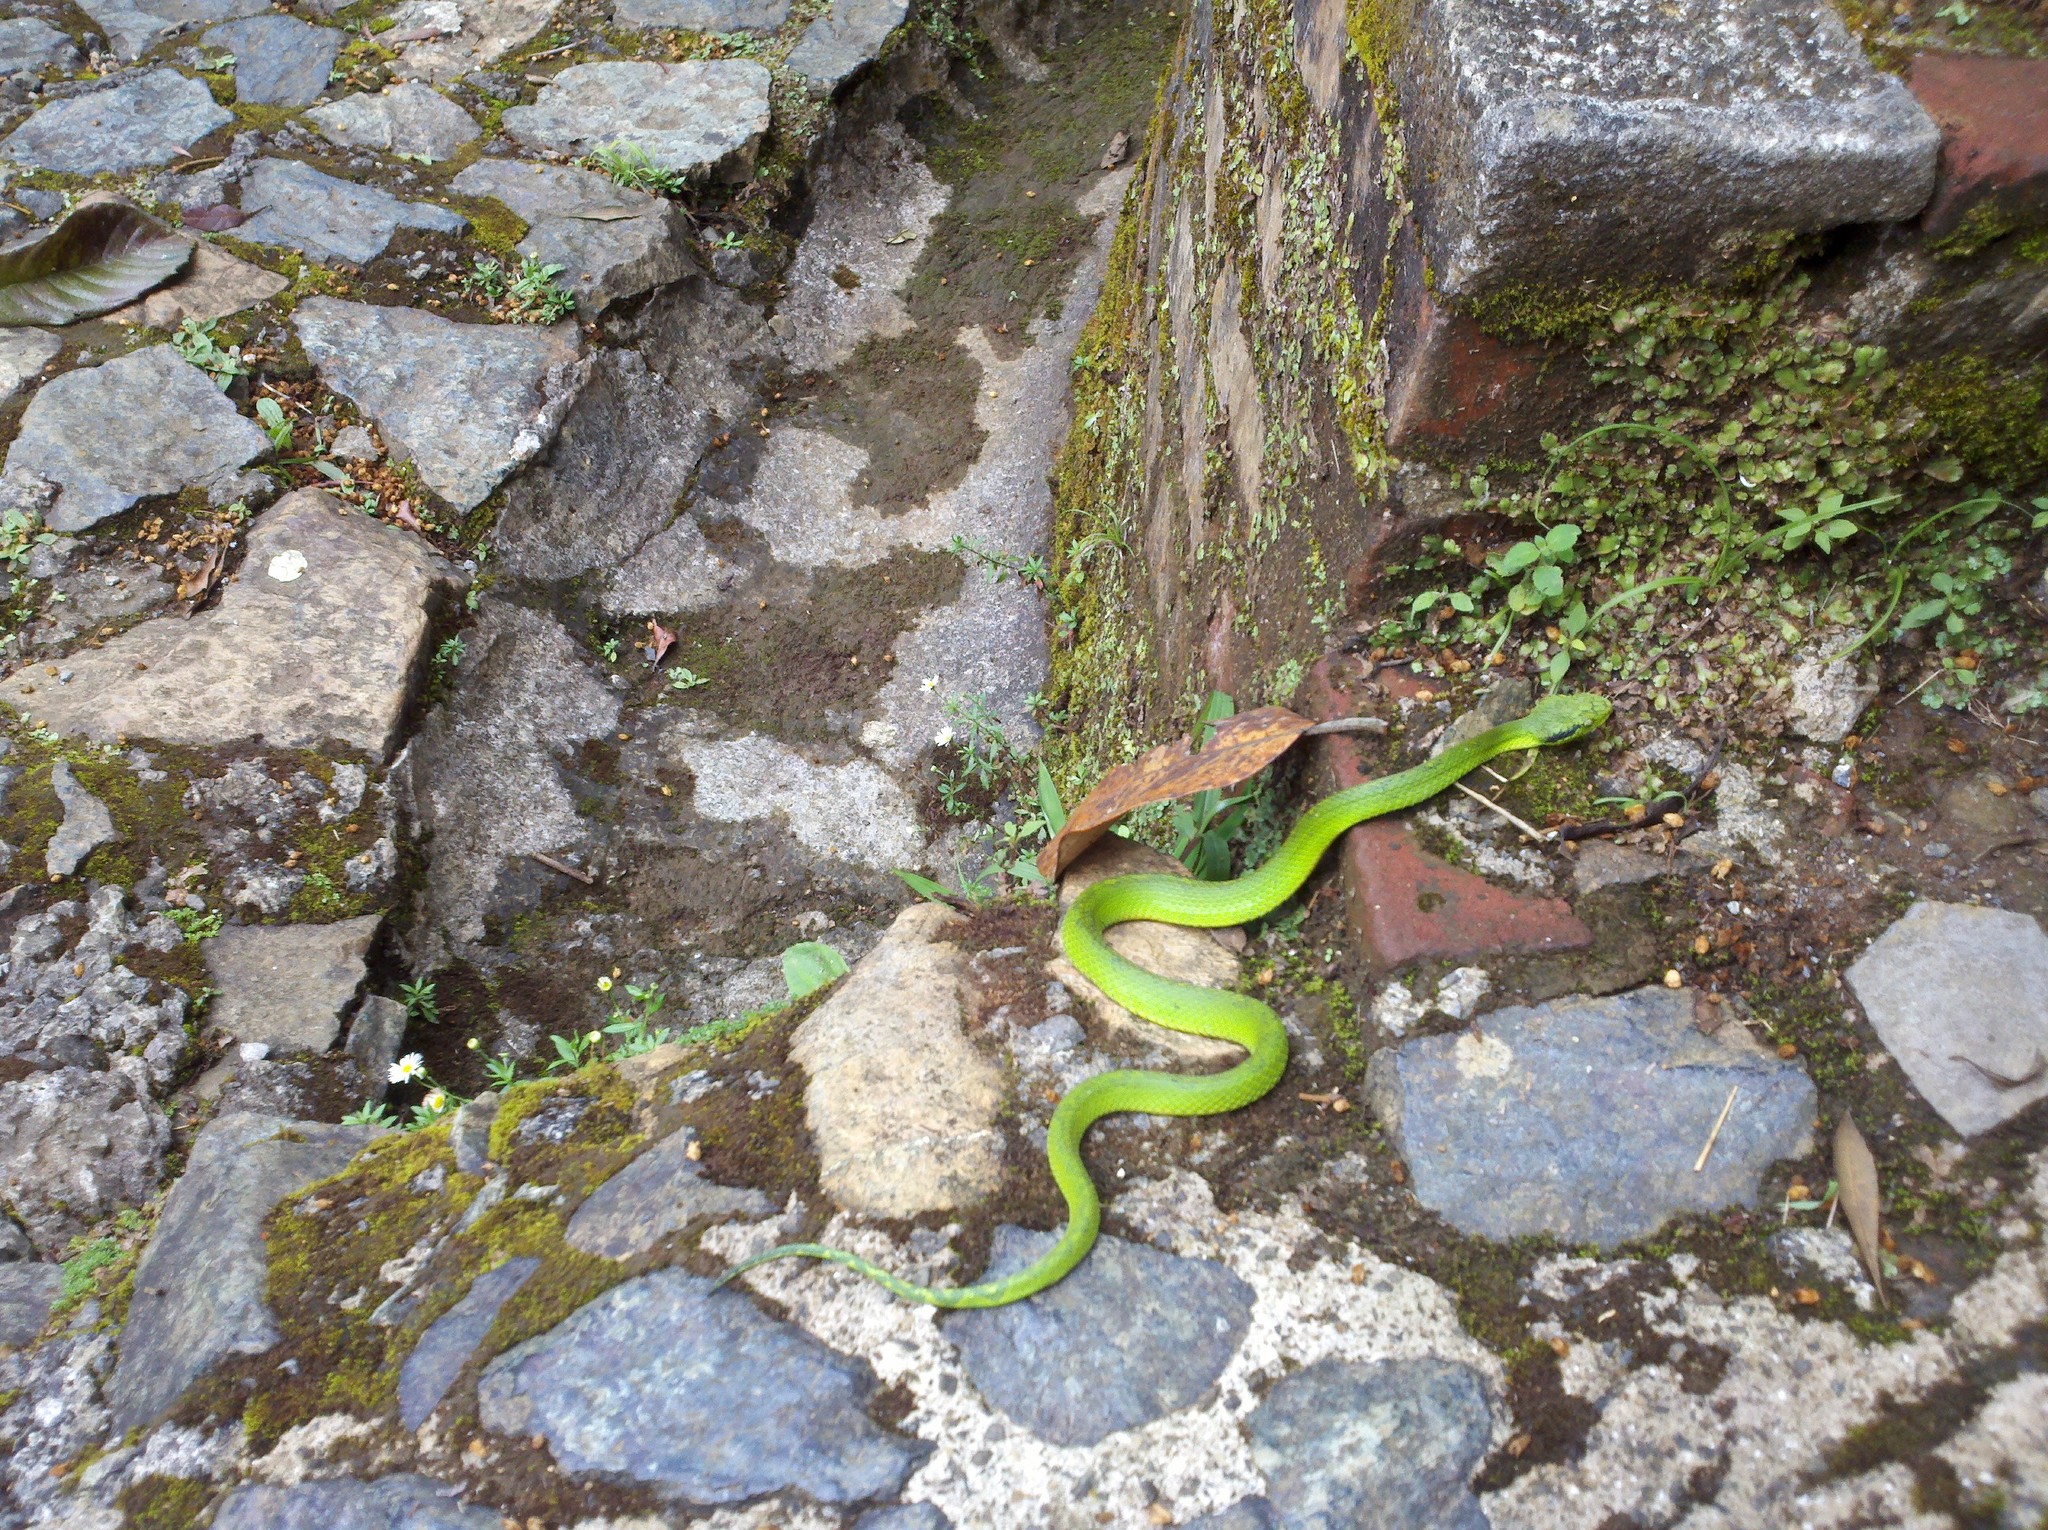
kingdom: Animalia
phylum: Chordata
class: Squamata
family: Viperidae
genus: Bothriechis
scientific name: Bothriechis aurifer
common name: Yellow-blotched palm pit viper
